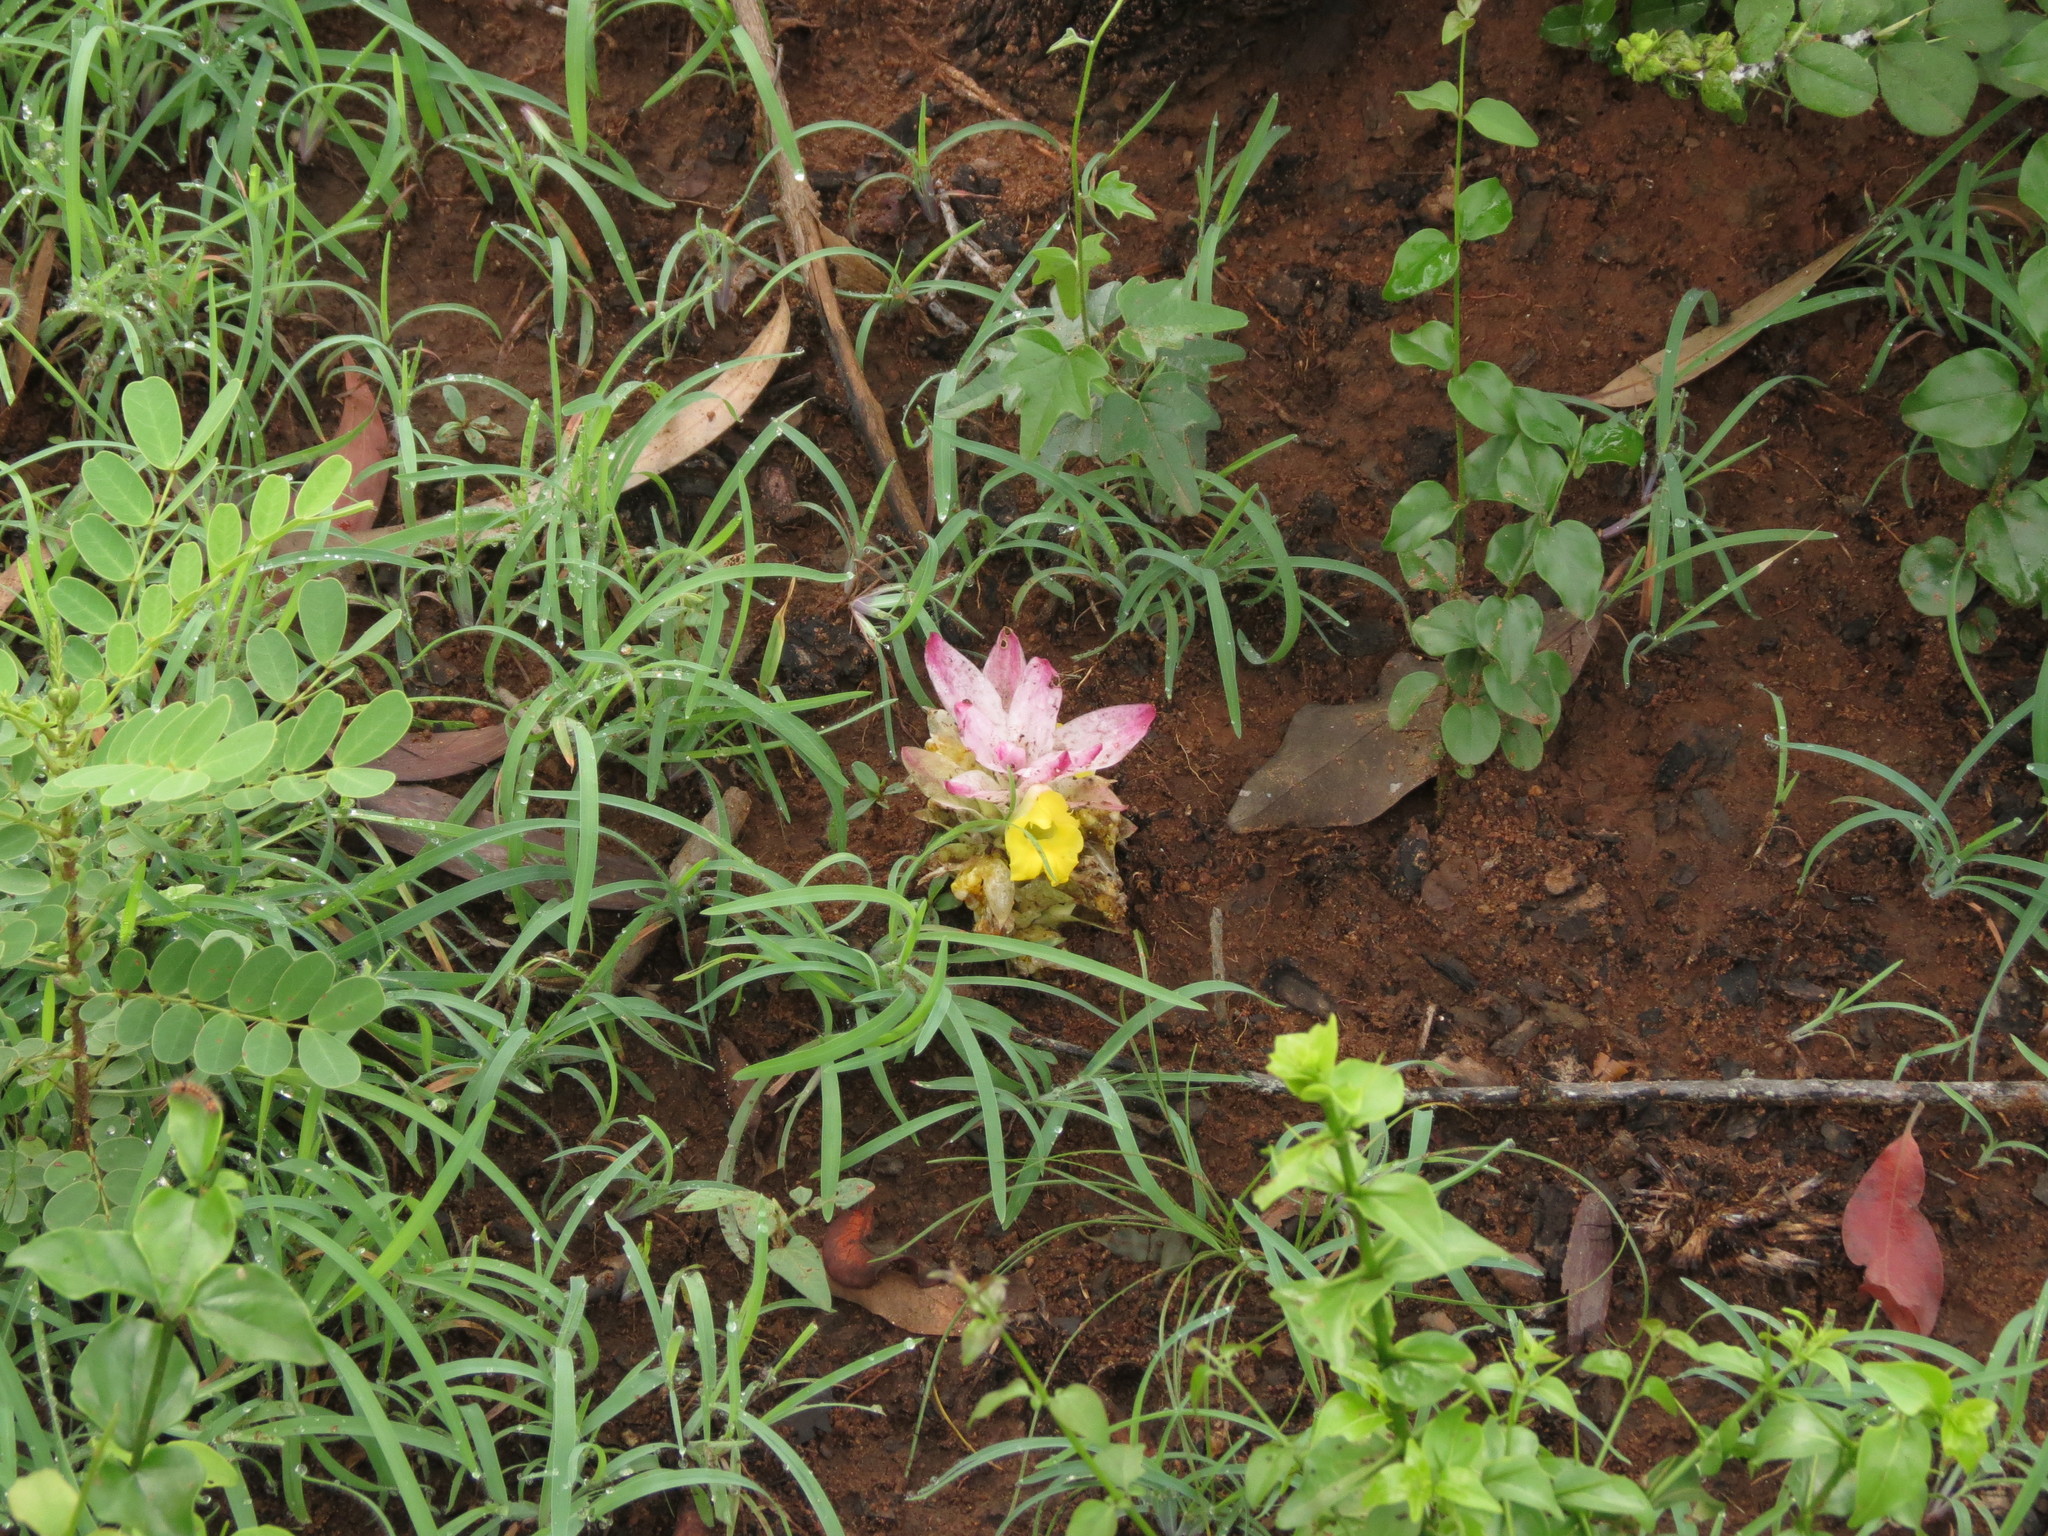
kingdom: Plantae
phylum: Tracheophyta
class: Liliopsida
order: Zingiberales
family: Zingiberaceae
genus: Curcuma
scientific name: Curcuma pseudomontana
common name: Hill turmeric
